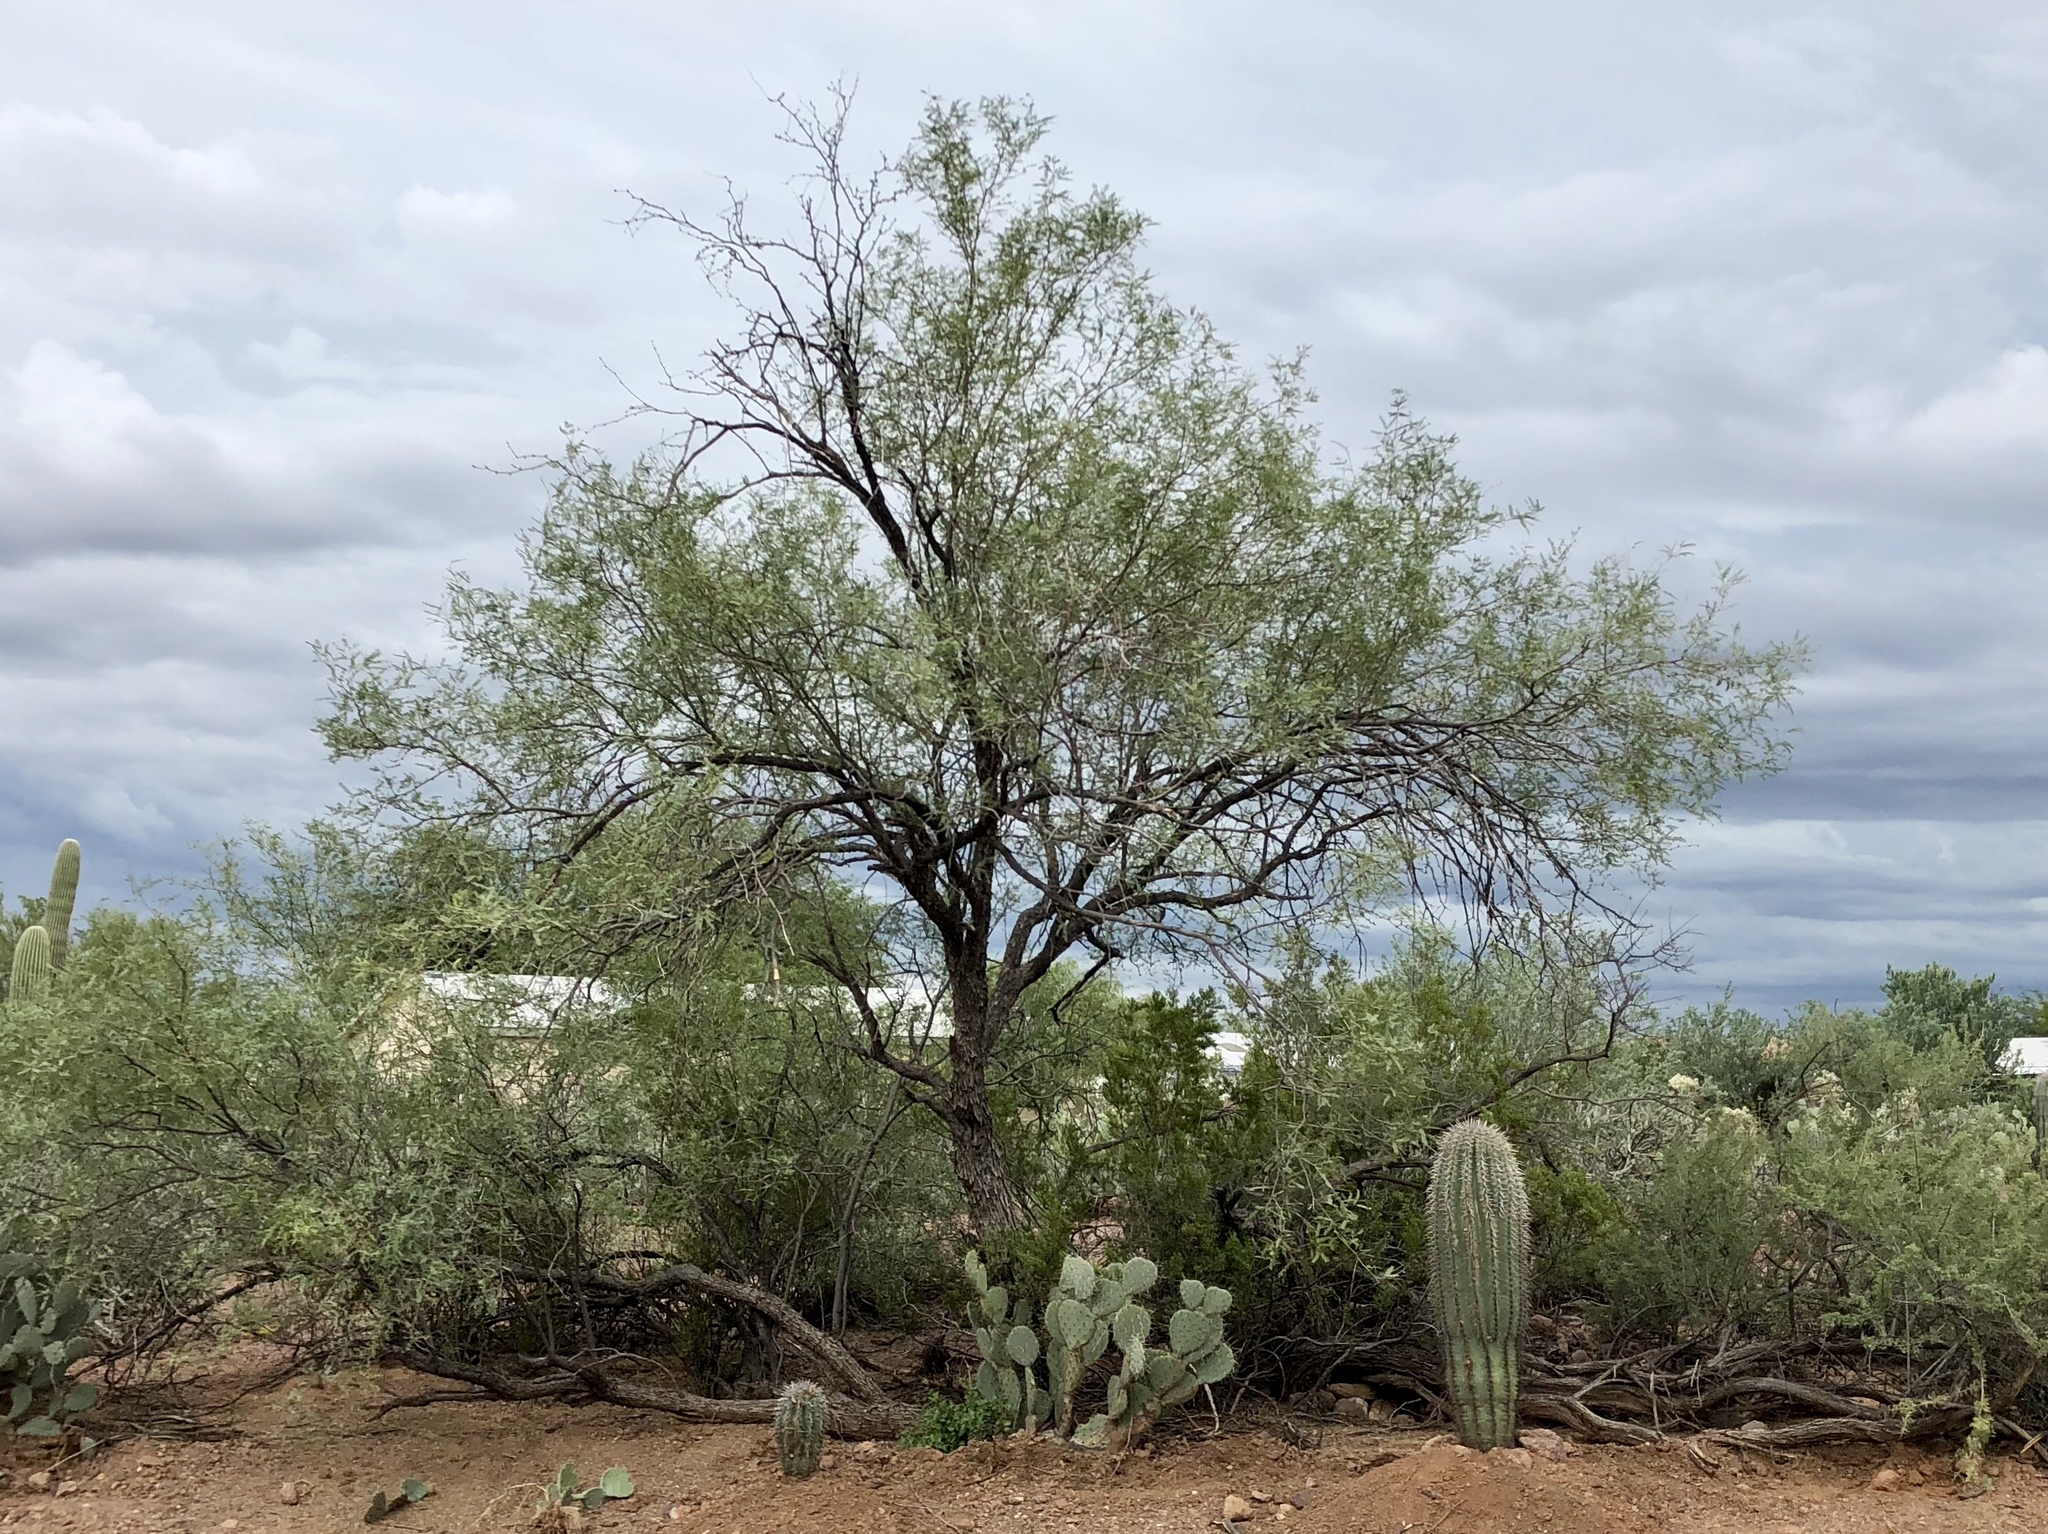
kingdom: Plantae
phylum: Tracheophyta
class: Magnoliopsida
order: Fabales
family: Fabaceae
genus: Prosopis
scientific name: Prosopis velutina
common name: Velvet mesquite
